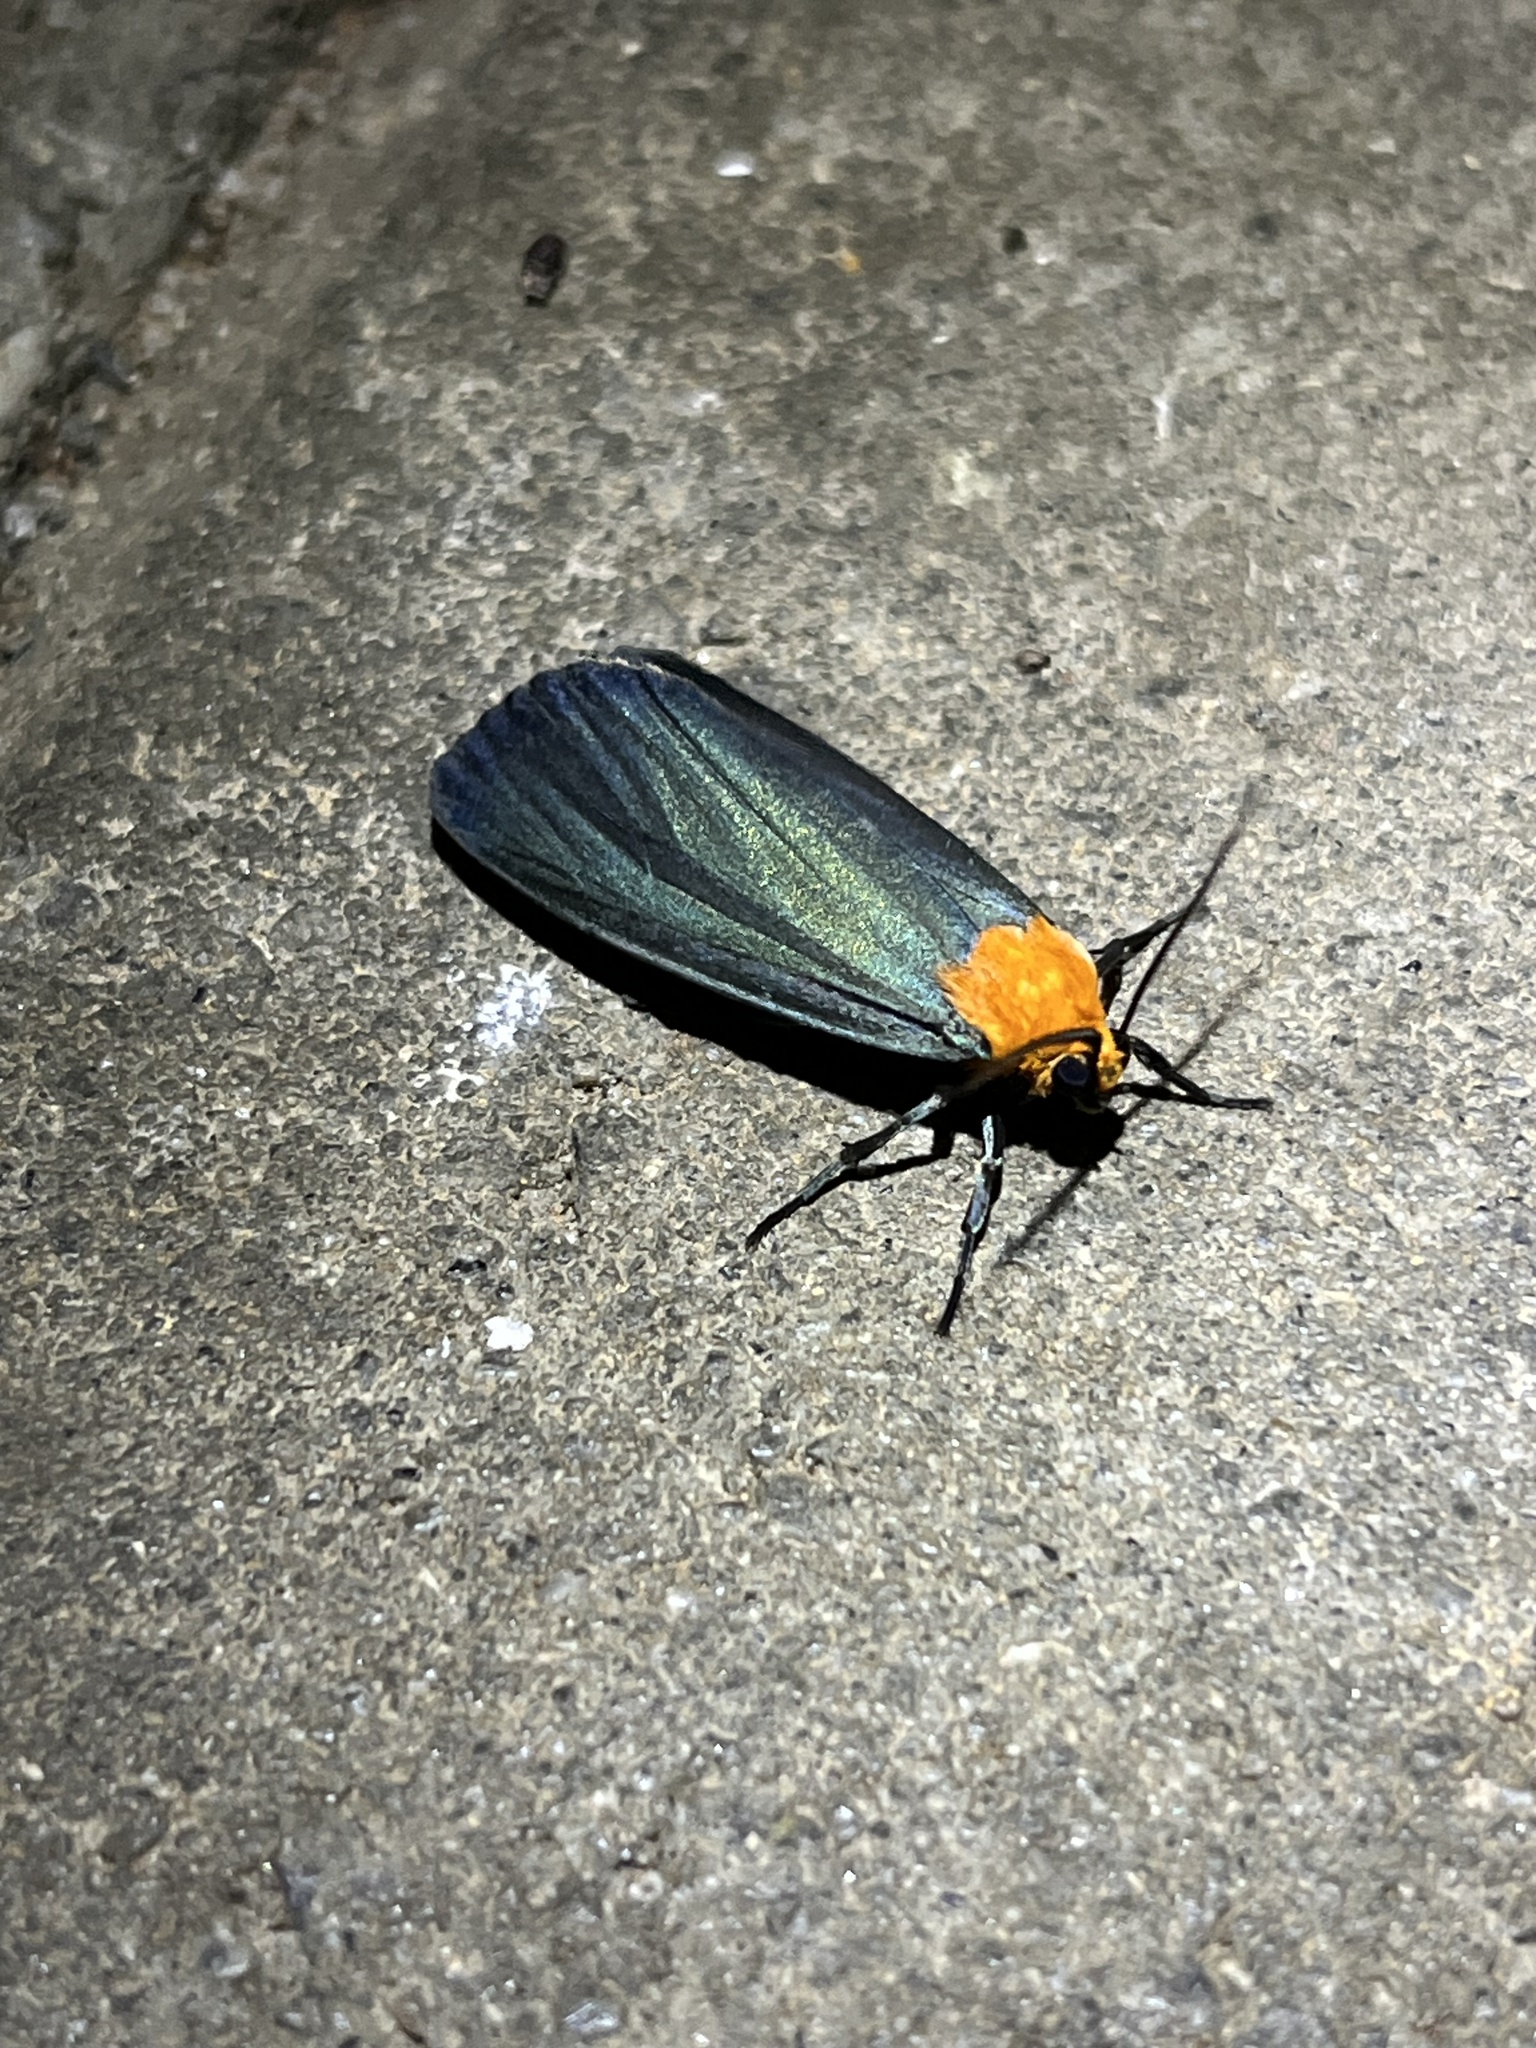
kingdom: Animalia
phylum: Arthropoda
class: Insecta
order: Lepidoptera
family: Erebidae
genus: Apistosia
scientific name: Apistosia judas
